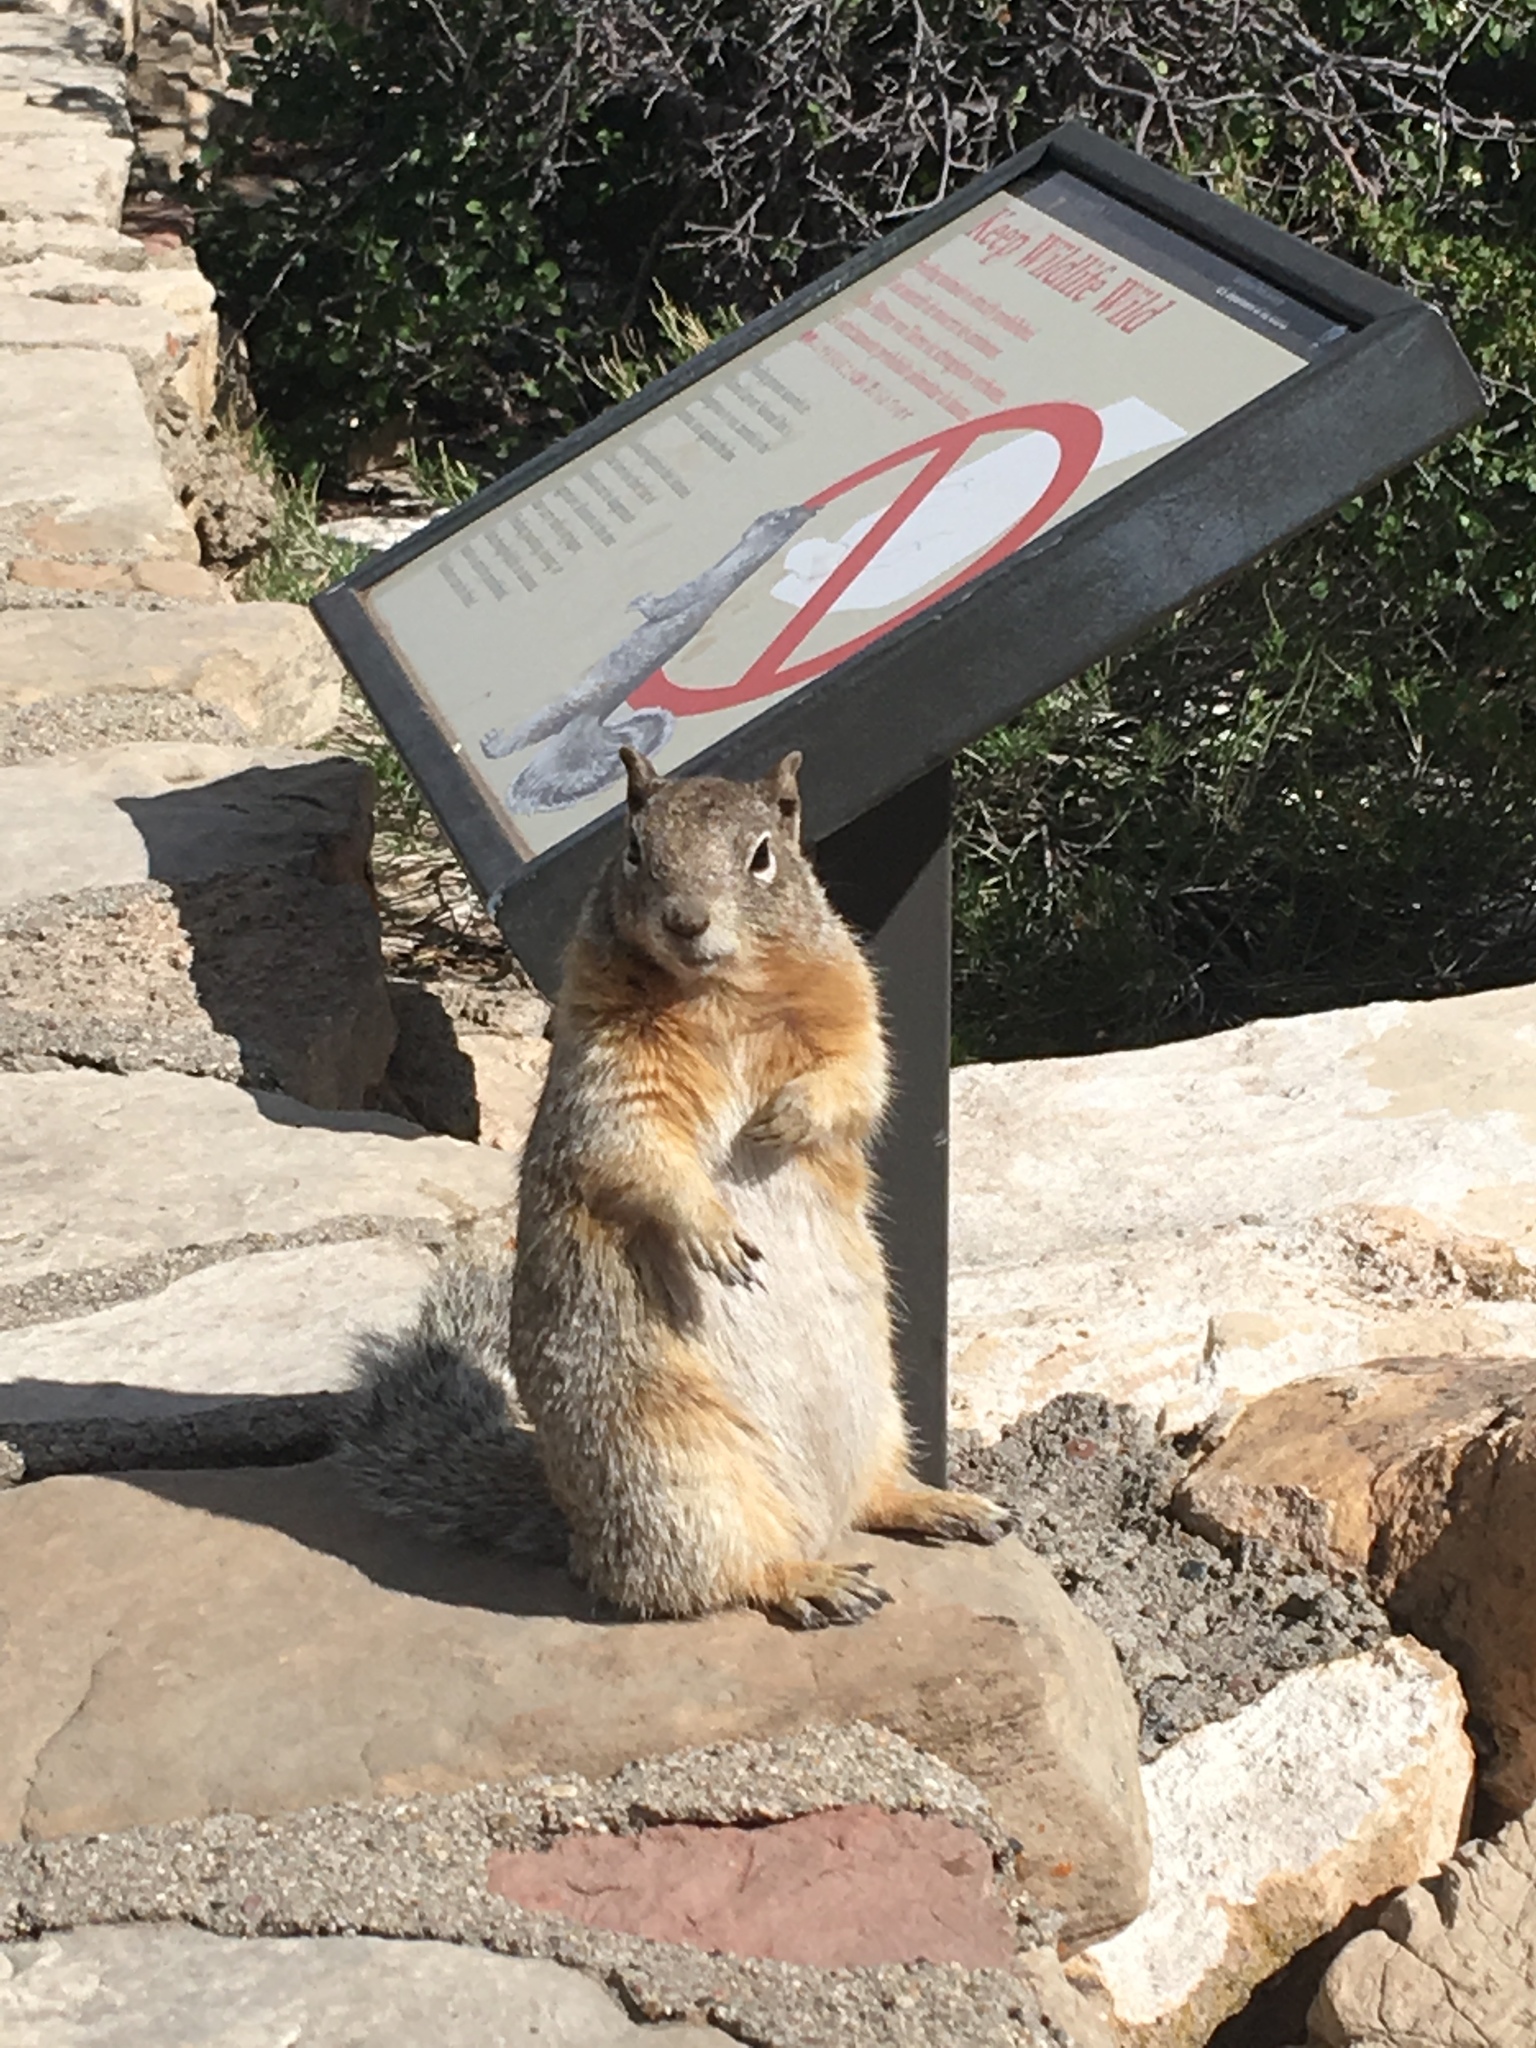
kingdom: Animalia
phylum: Chordata
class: Mammalia
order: Rodentia
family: Sciuridae
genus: Otospermophilus
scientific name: Otospermophilus variegatus
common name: Rock squirrel
